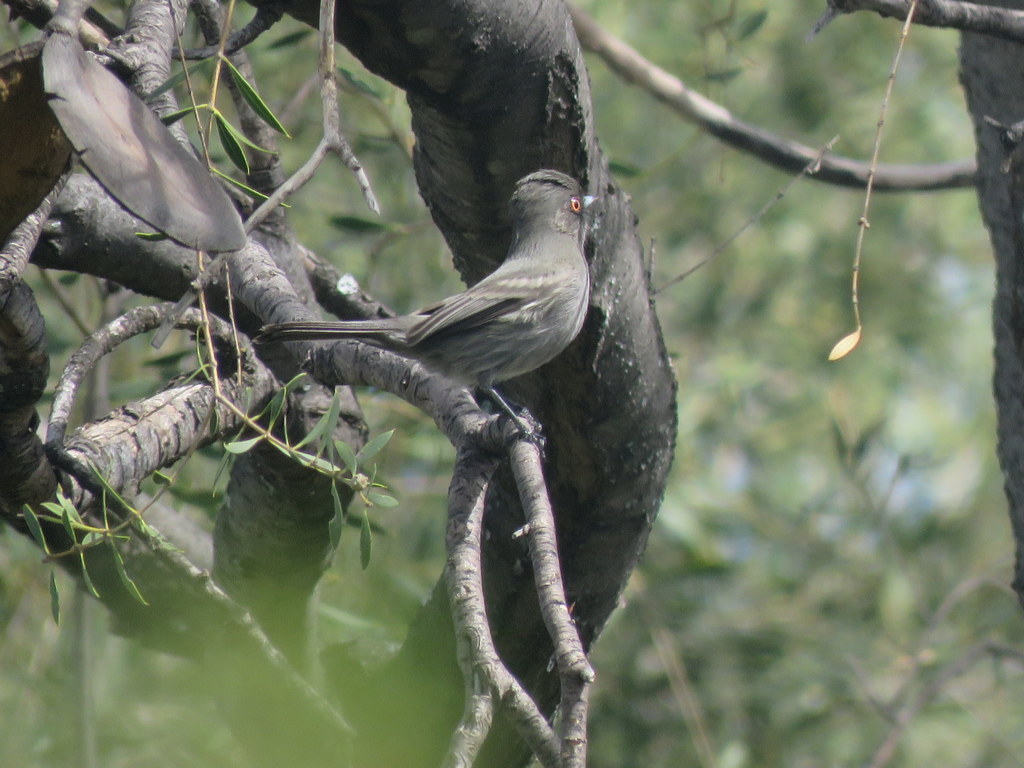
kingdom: Animalia
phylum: Chordata
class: Aves
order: Passeriformes
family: Tyrannidae
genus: Knipolegus
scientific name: Knipolegus striaticeps
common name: Cinereous tyrant
